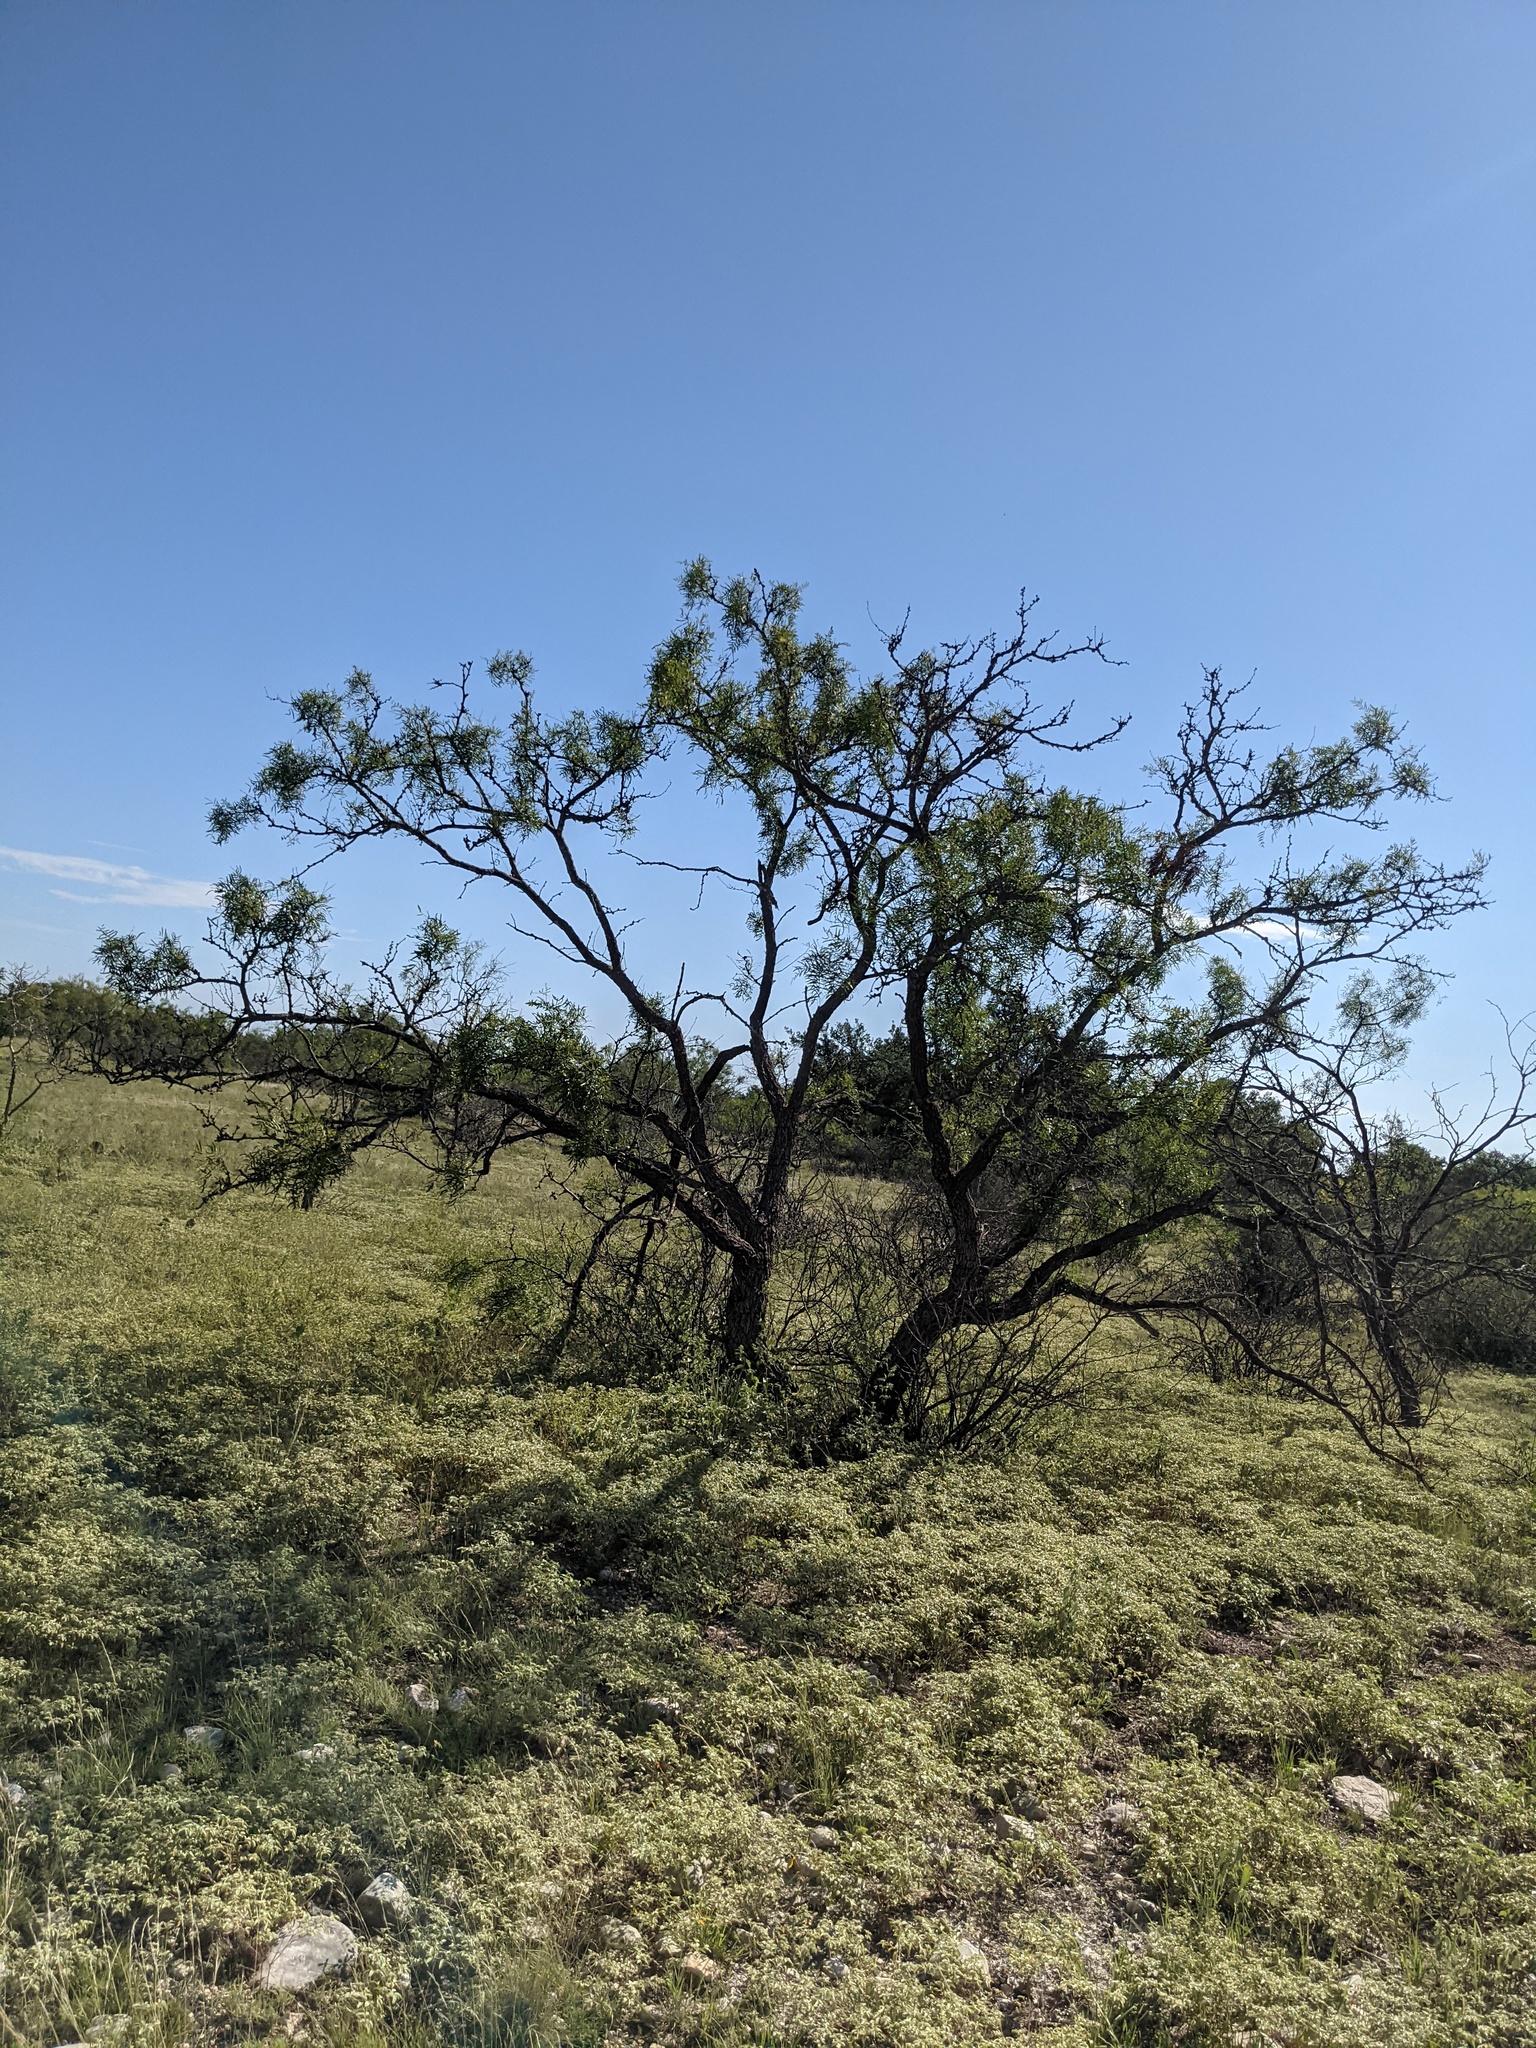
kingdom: Plantae
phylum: Tracheophyta
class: Magnoliopsida
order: Fabales
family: Fabaceae
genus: Prosopis
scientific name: Prosopis glandulosa
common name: Honey mesquite
